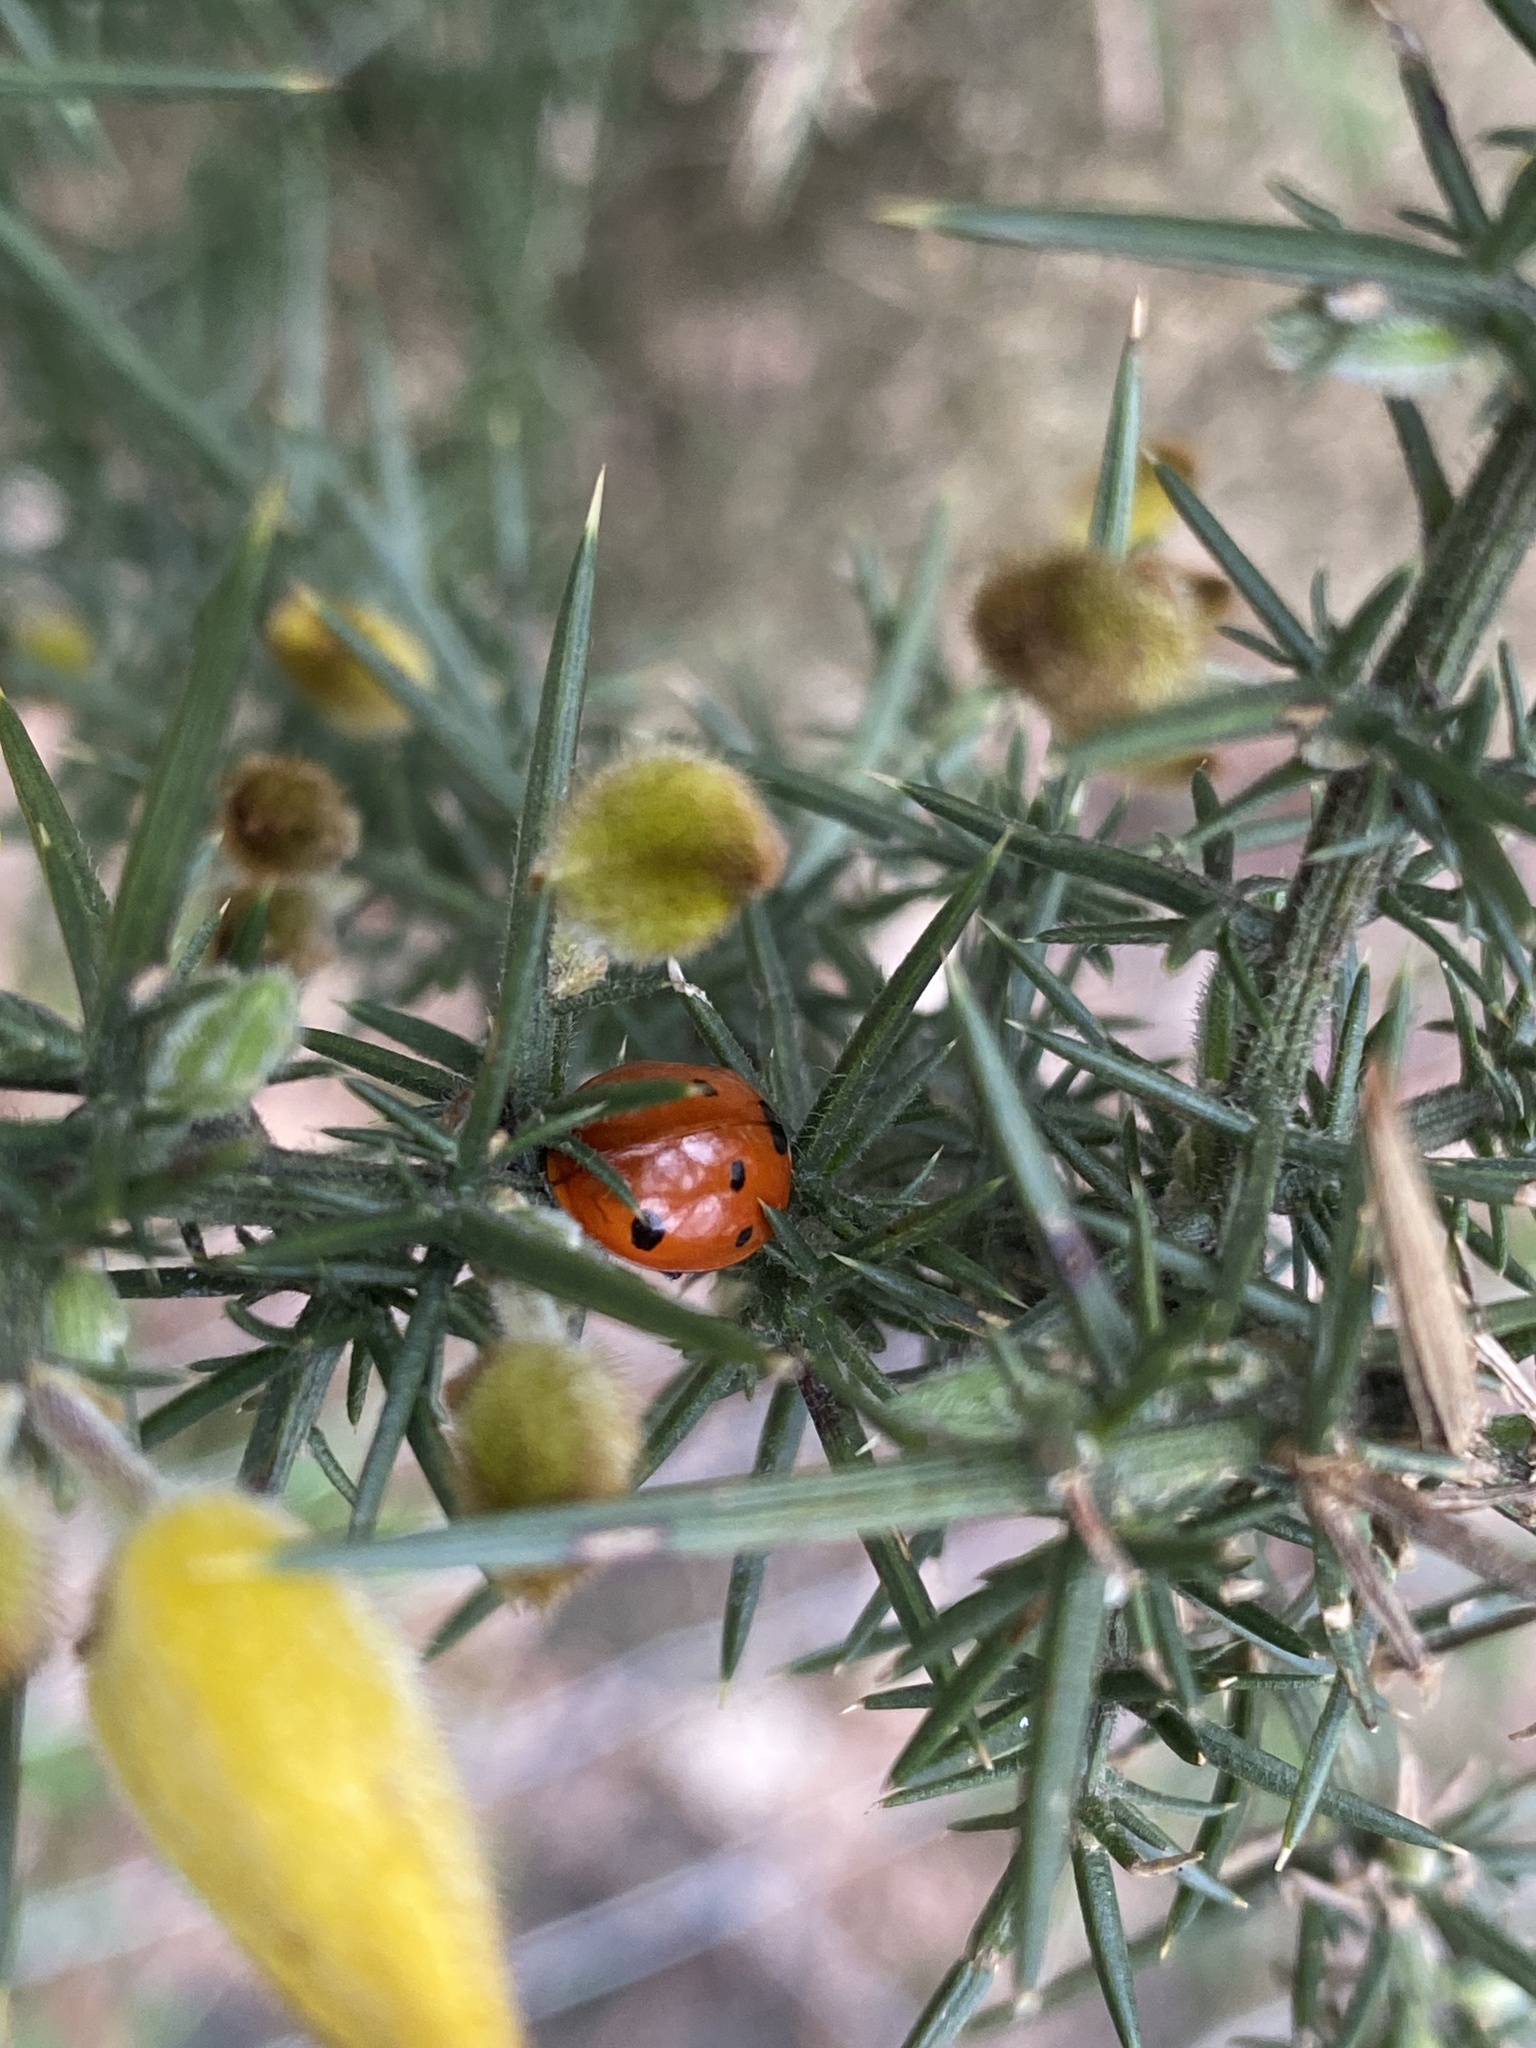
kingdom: Animalia
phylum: Arthropoda
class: Insecta
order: Coleoptera
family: Coccinellidae
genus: Coccinella
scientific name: Coccinella septempunctata
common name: Sevenspotted lady beetle
